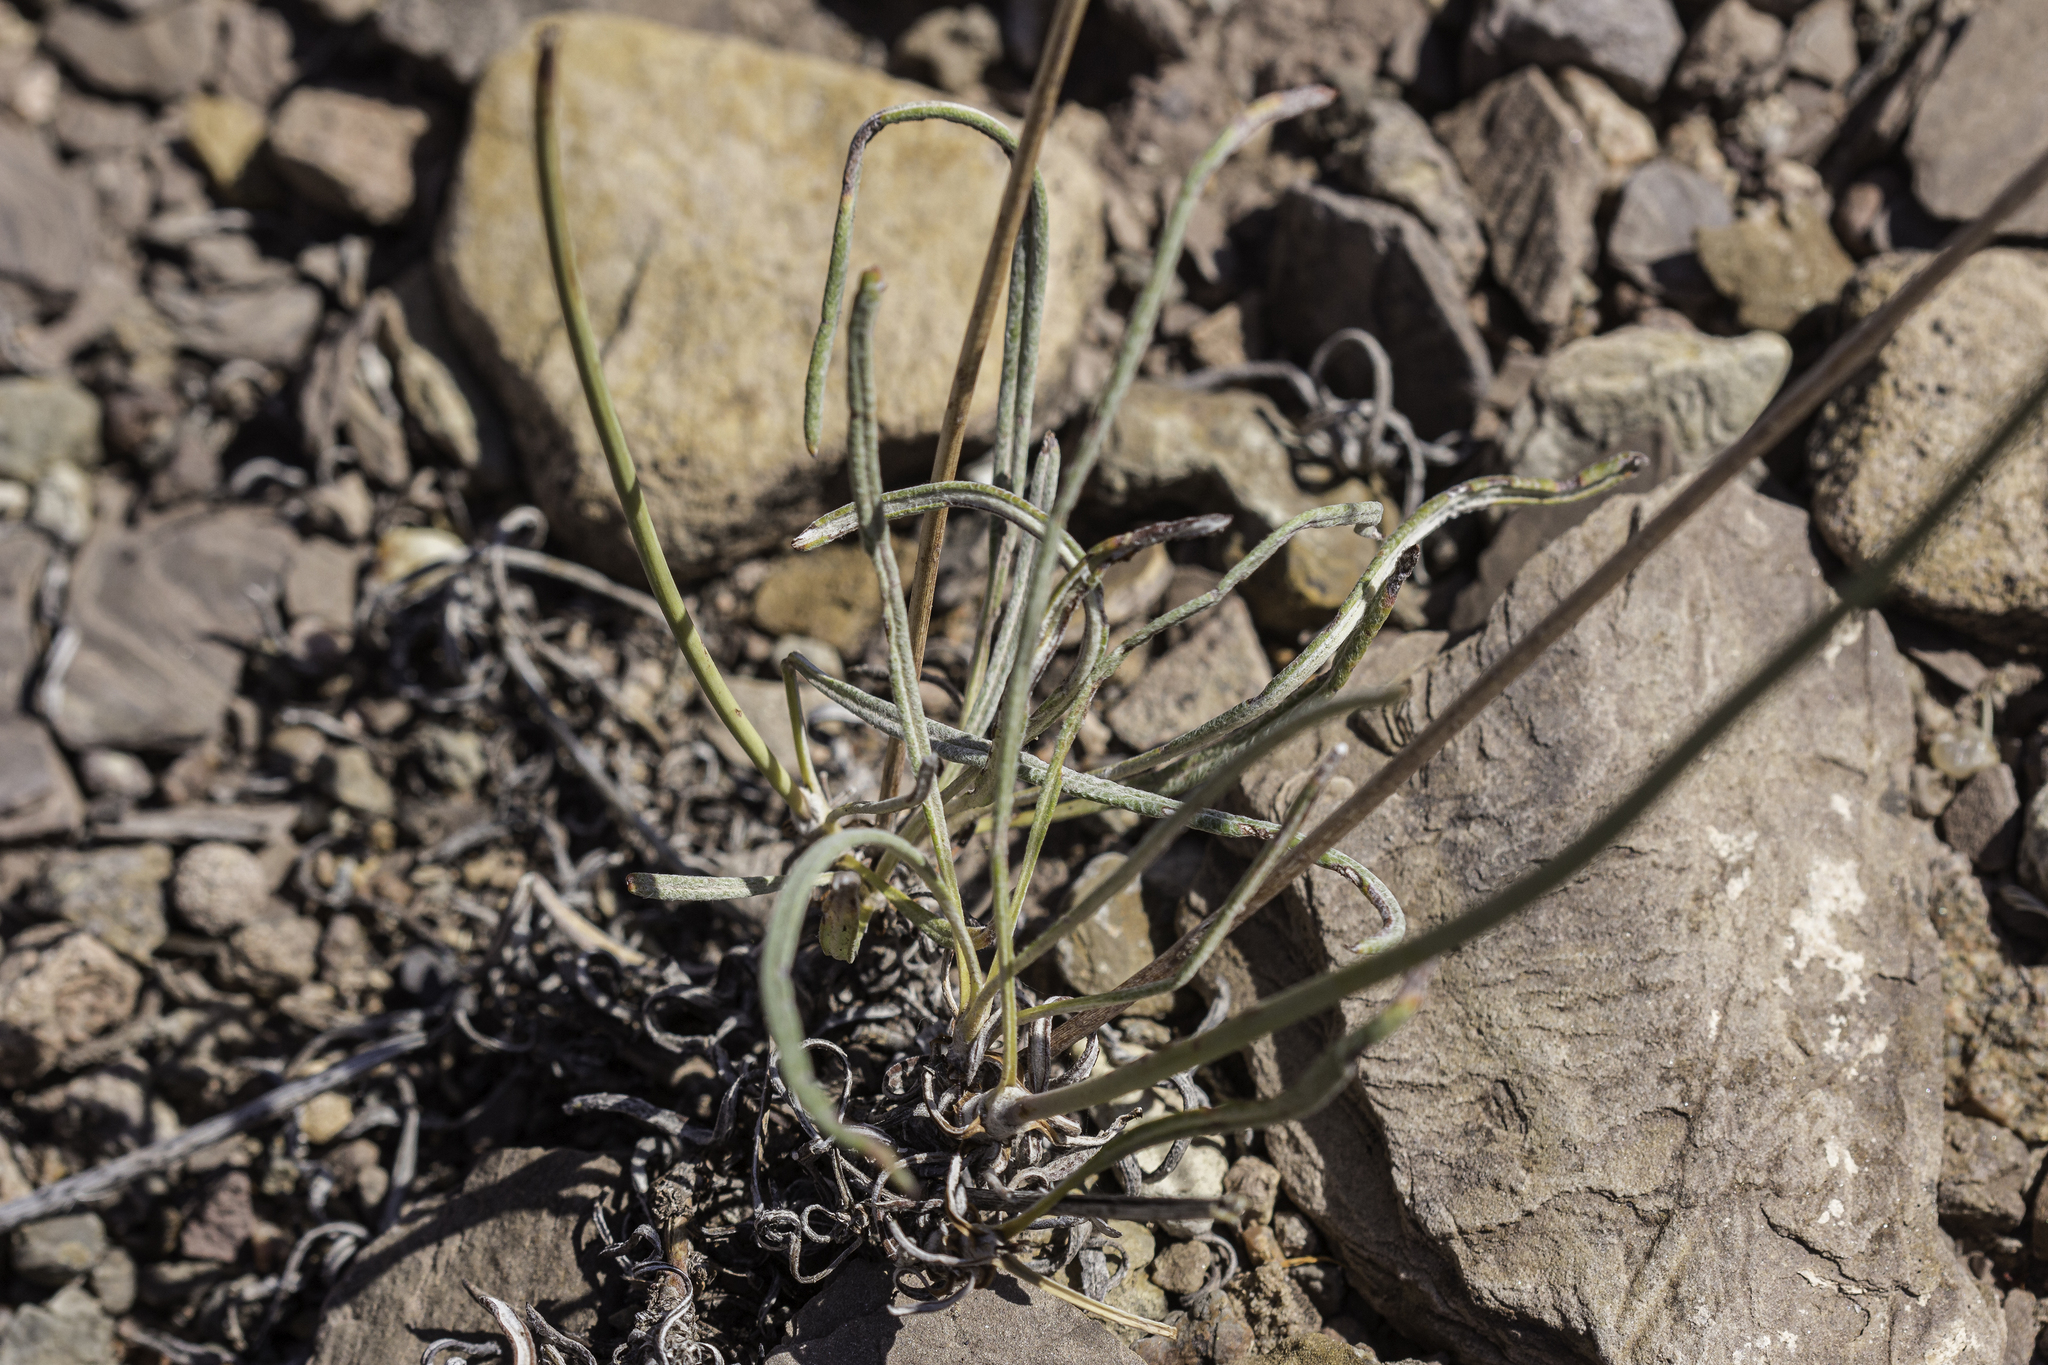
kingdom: Plantae
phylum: Tracheophyta
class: Magnoliopsida
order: Caryophyllales
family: Polygonaceae
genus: Eriogonum
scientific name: Eriogonum lonchophyllum
